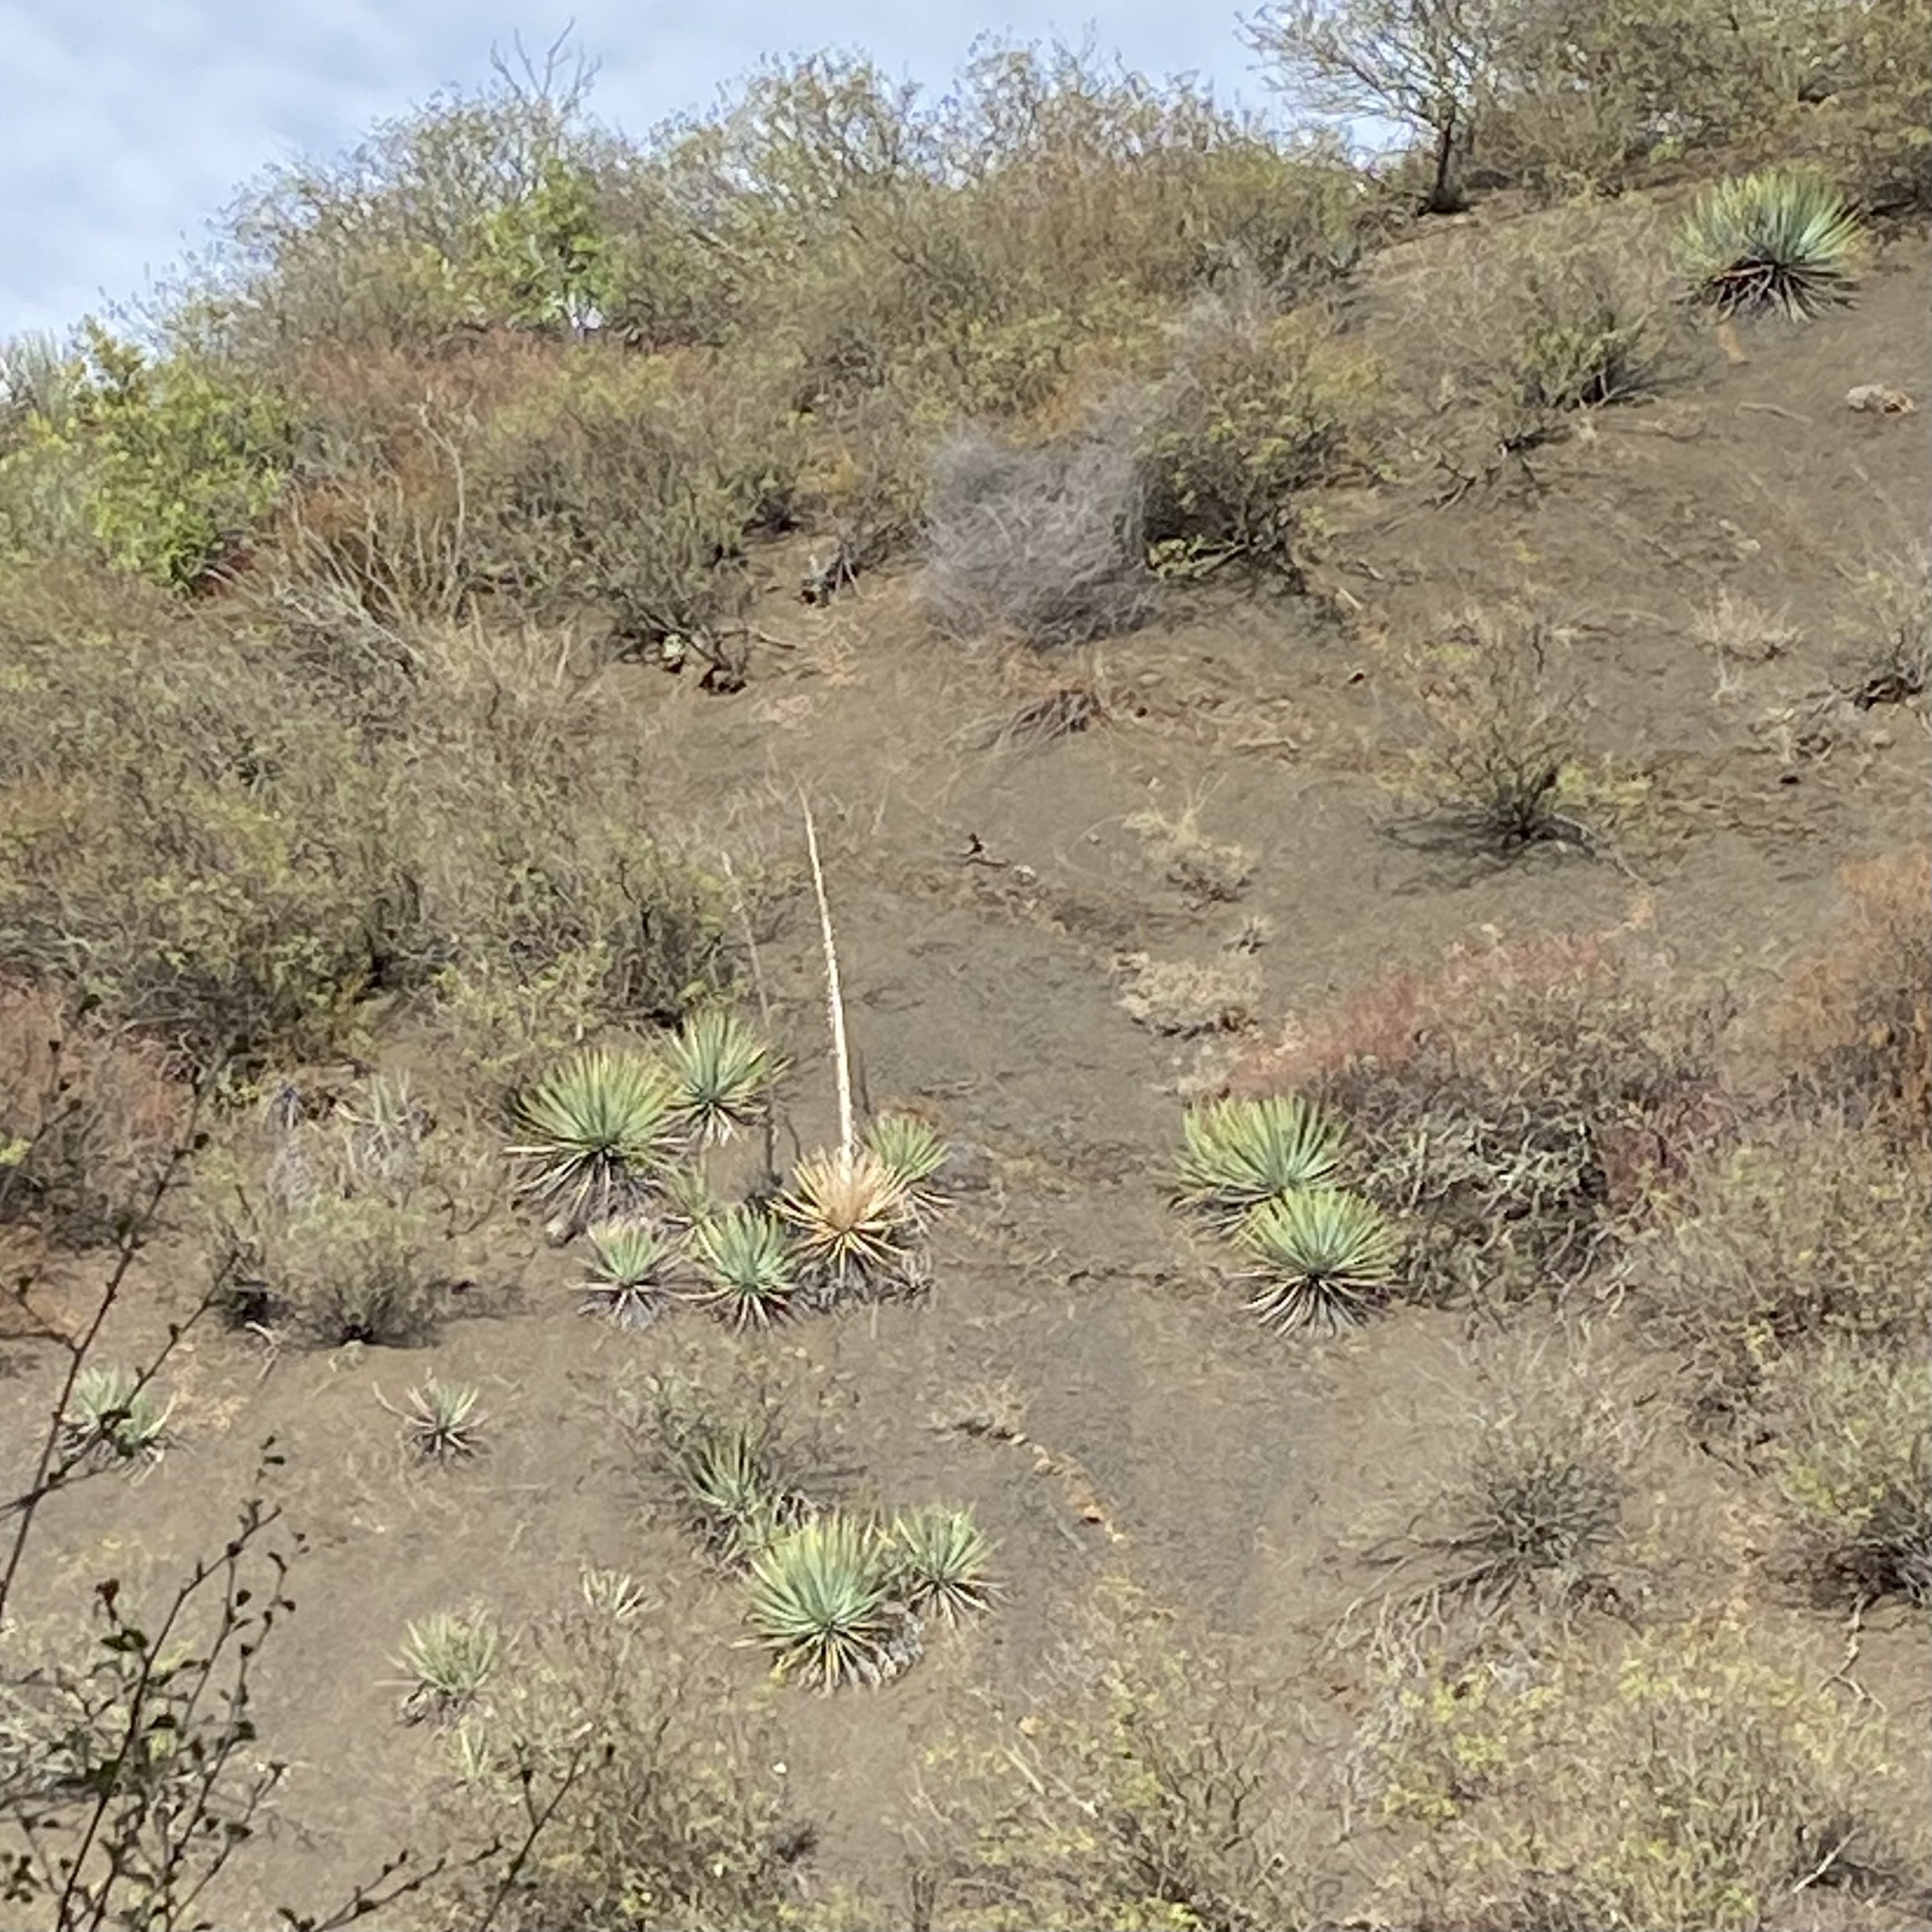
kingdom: Plantae
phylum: Tracheophyta
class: Liliopsida
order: Asparagales
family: Asparagaceae
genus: Hesperoyucca
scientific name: Hesperoyucca whipplei
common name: Our lord's-candle
